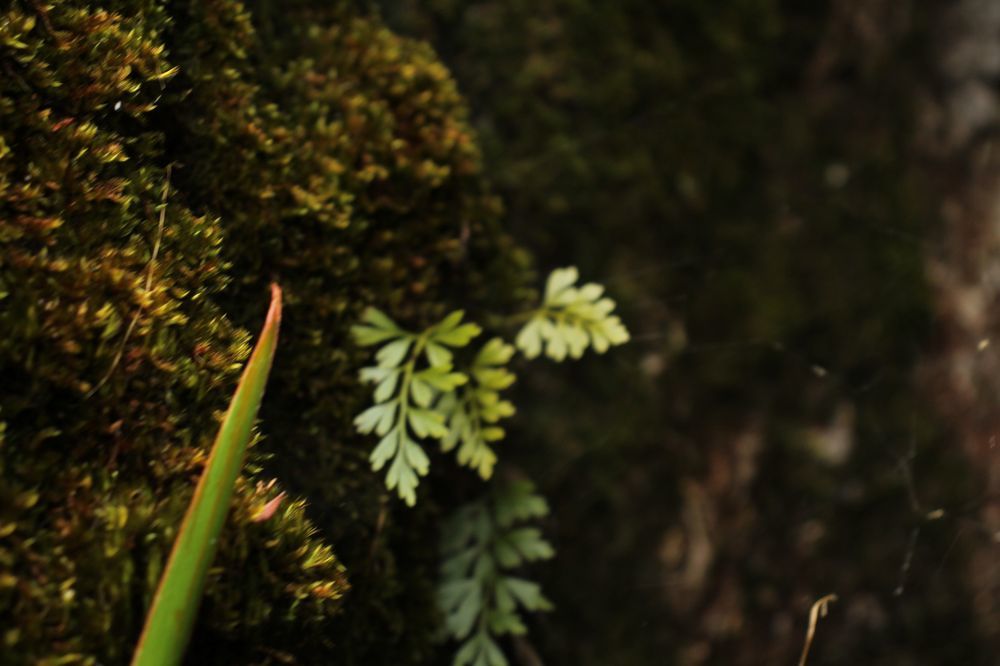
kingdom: Plantae
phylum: Tracheophyta
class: Polypodiopsida
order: Polypodiales
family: Aspleniaceae
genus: Asplenium
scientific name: Asplenium aethiopicum
